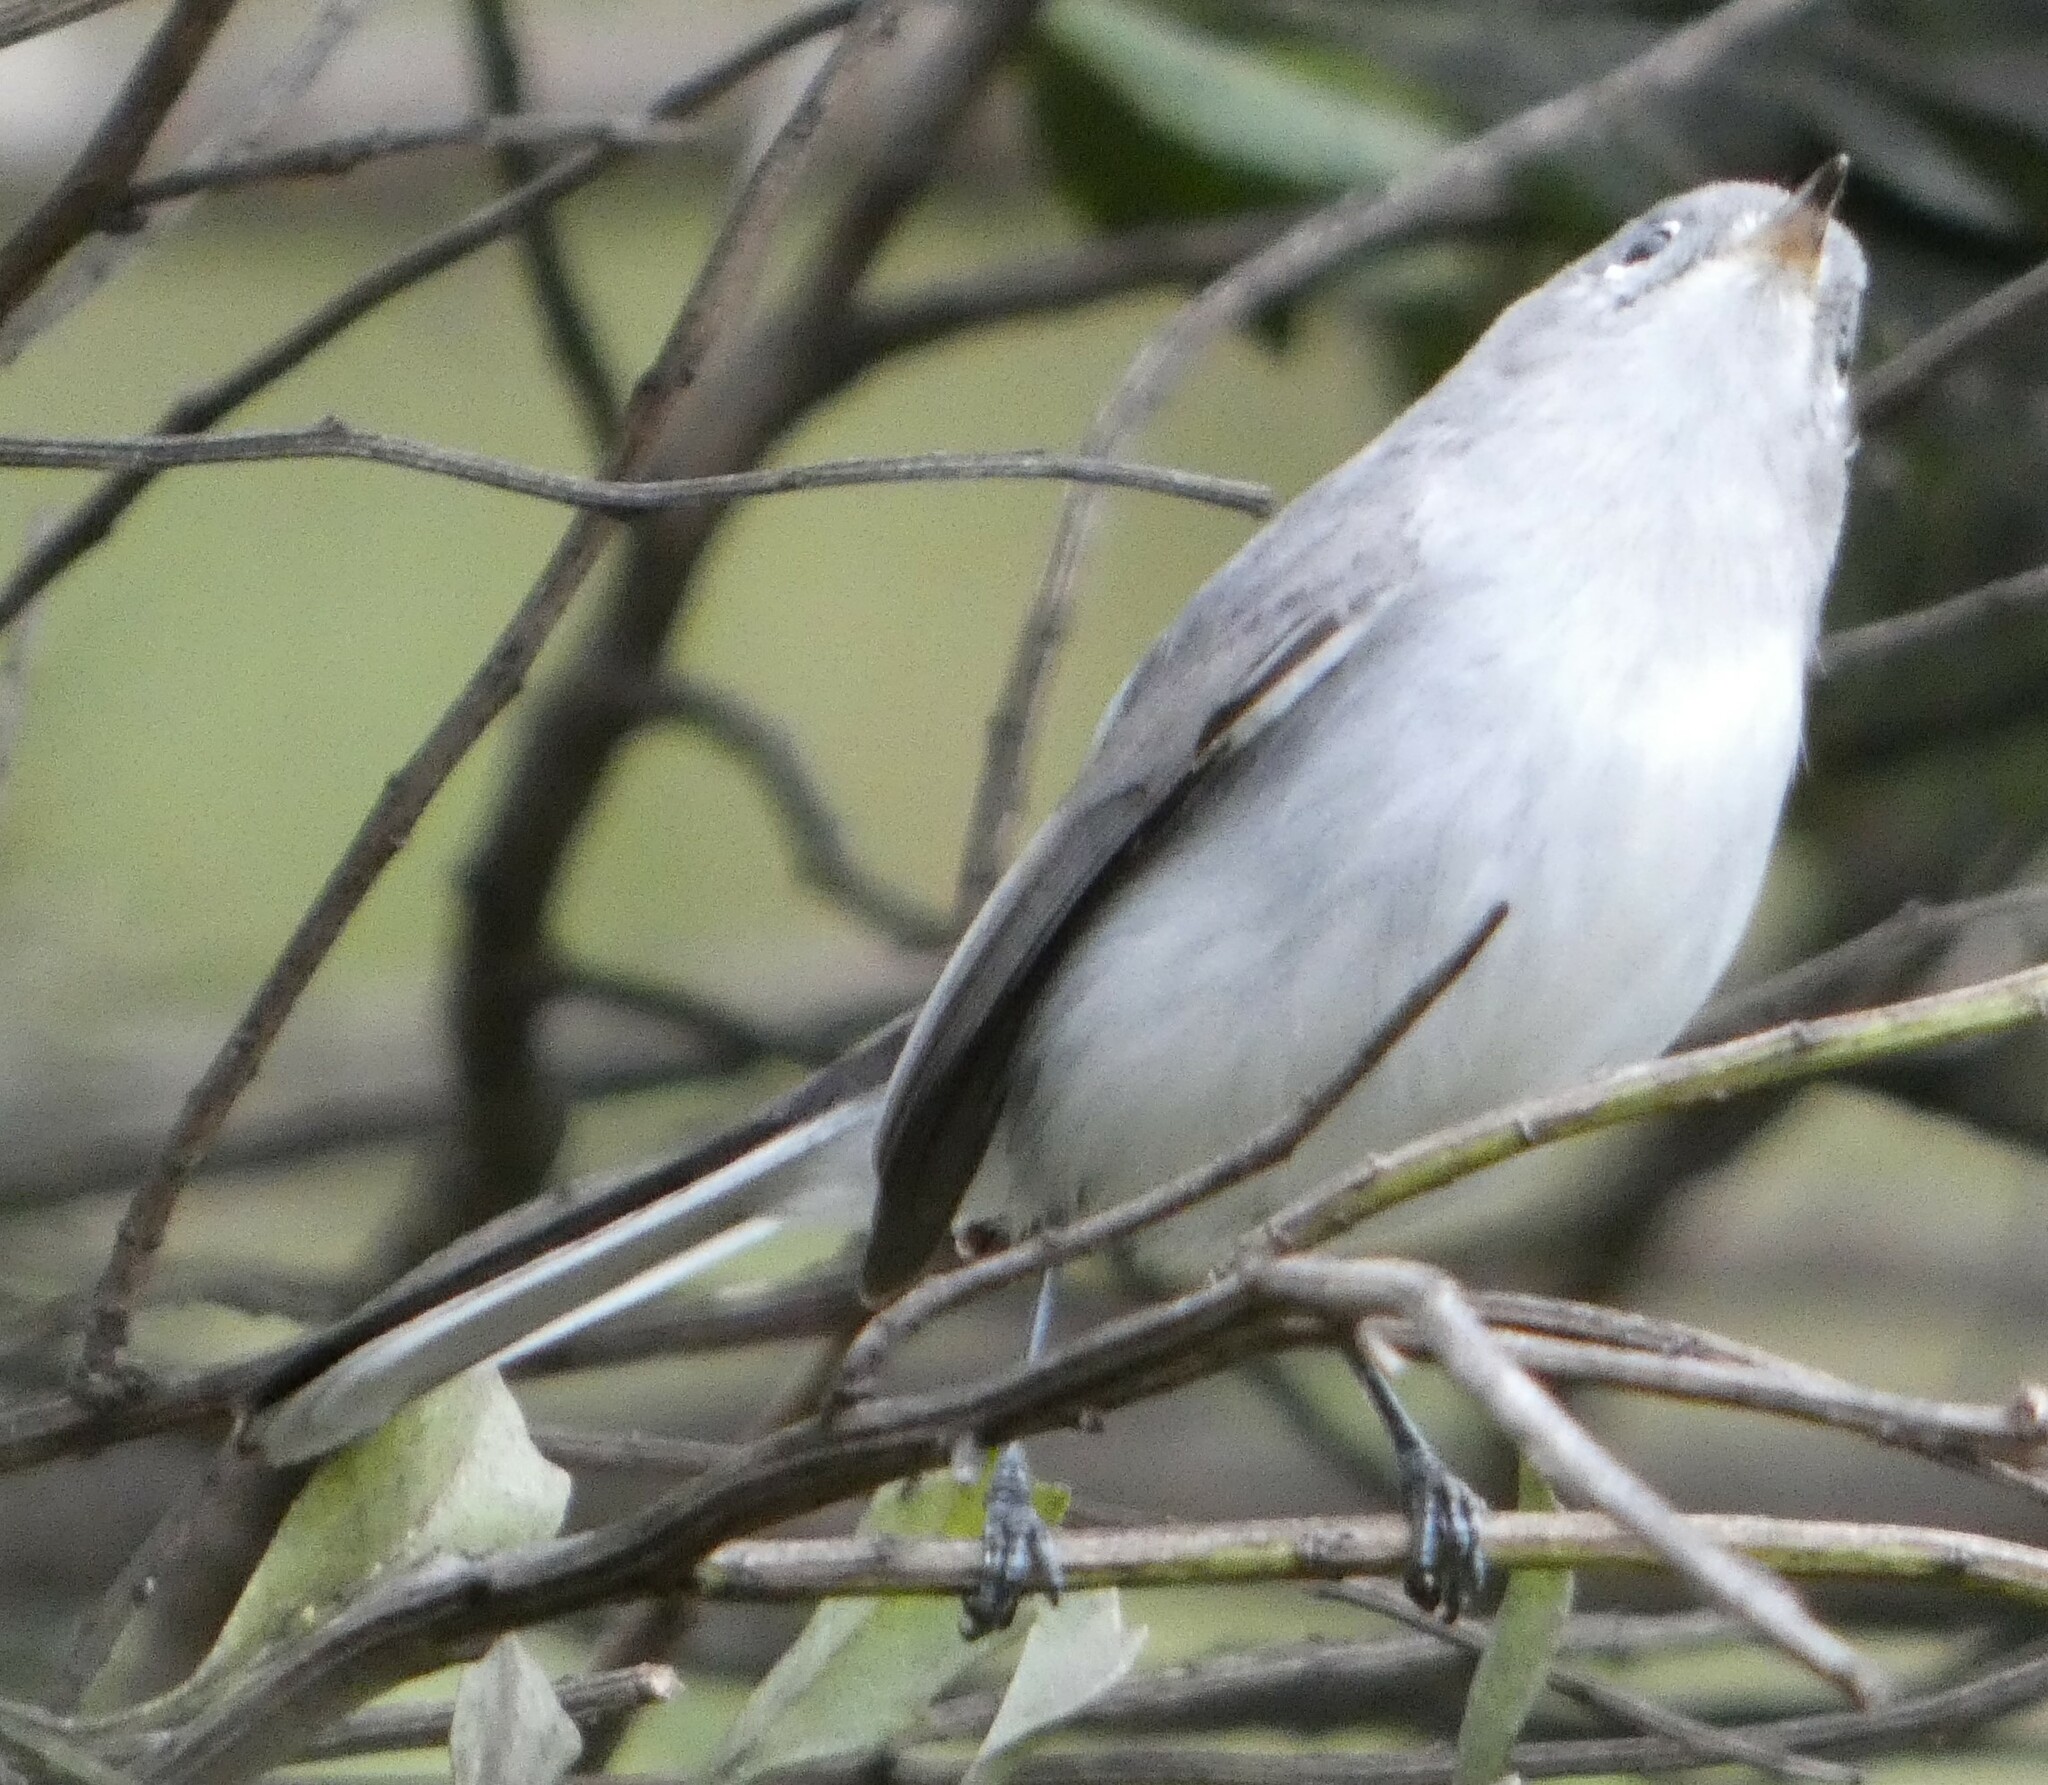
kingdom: Animalia
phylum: Chordata
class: Aves
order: Passeriformes
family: Polioptilidae
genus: Polioptila
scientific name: Polioptila caerulea
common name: Blue-gray gnatcatcher
